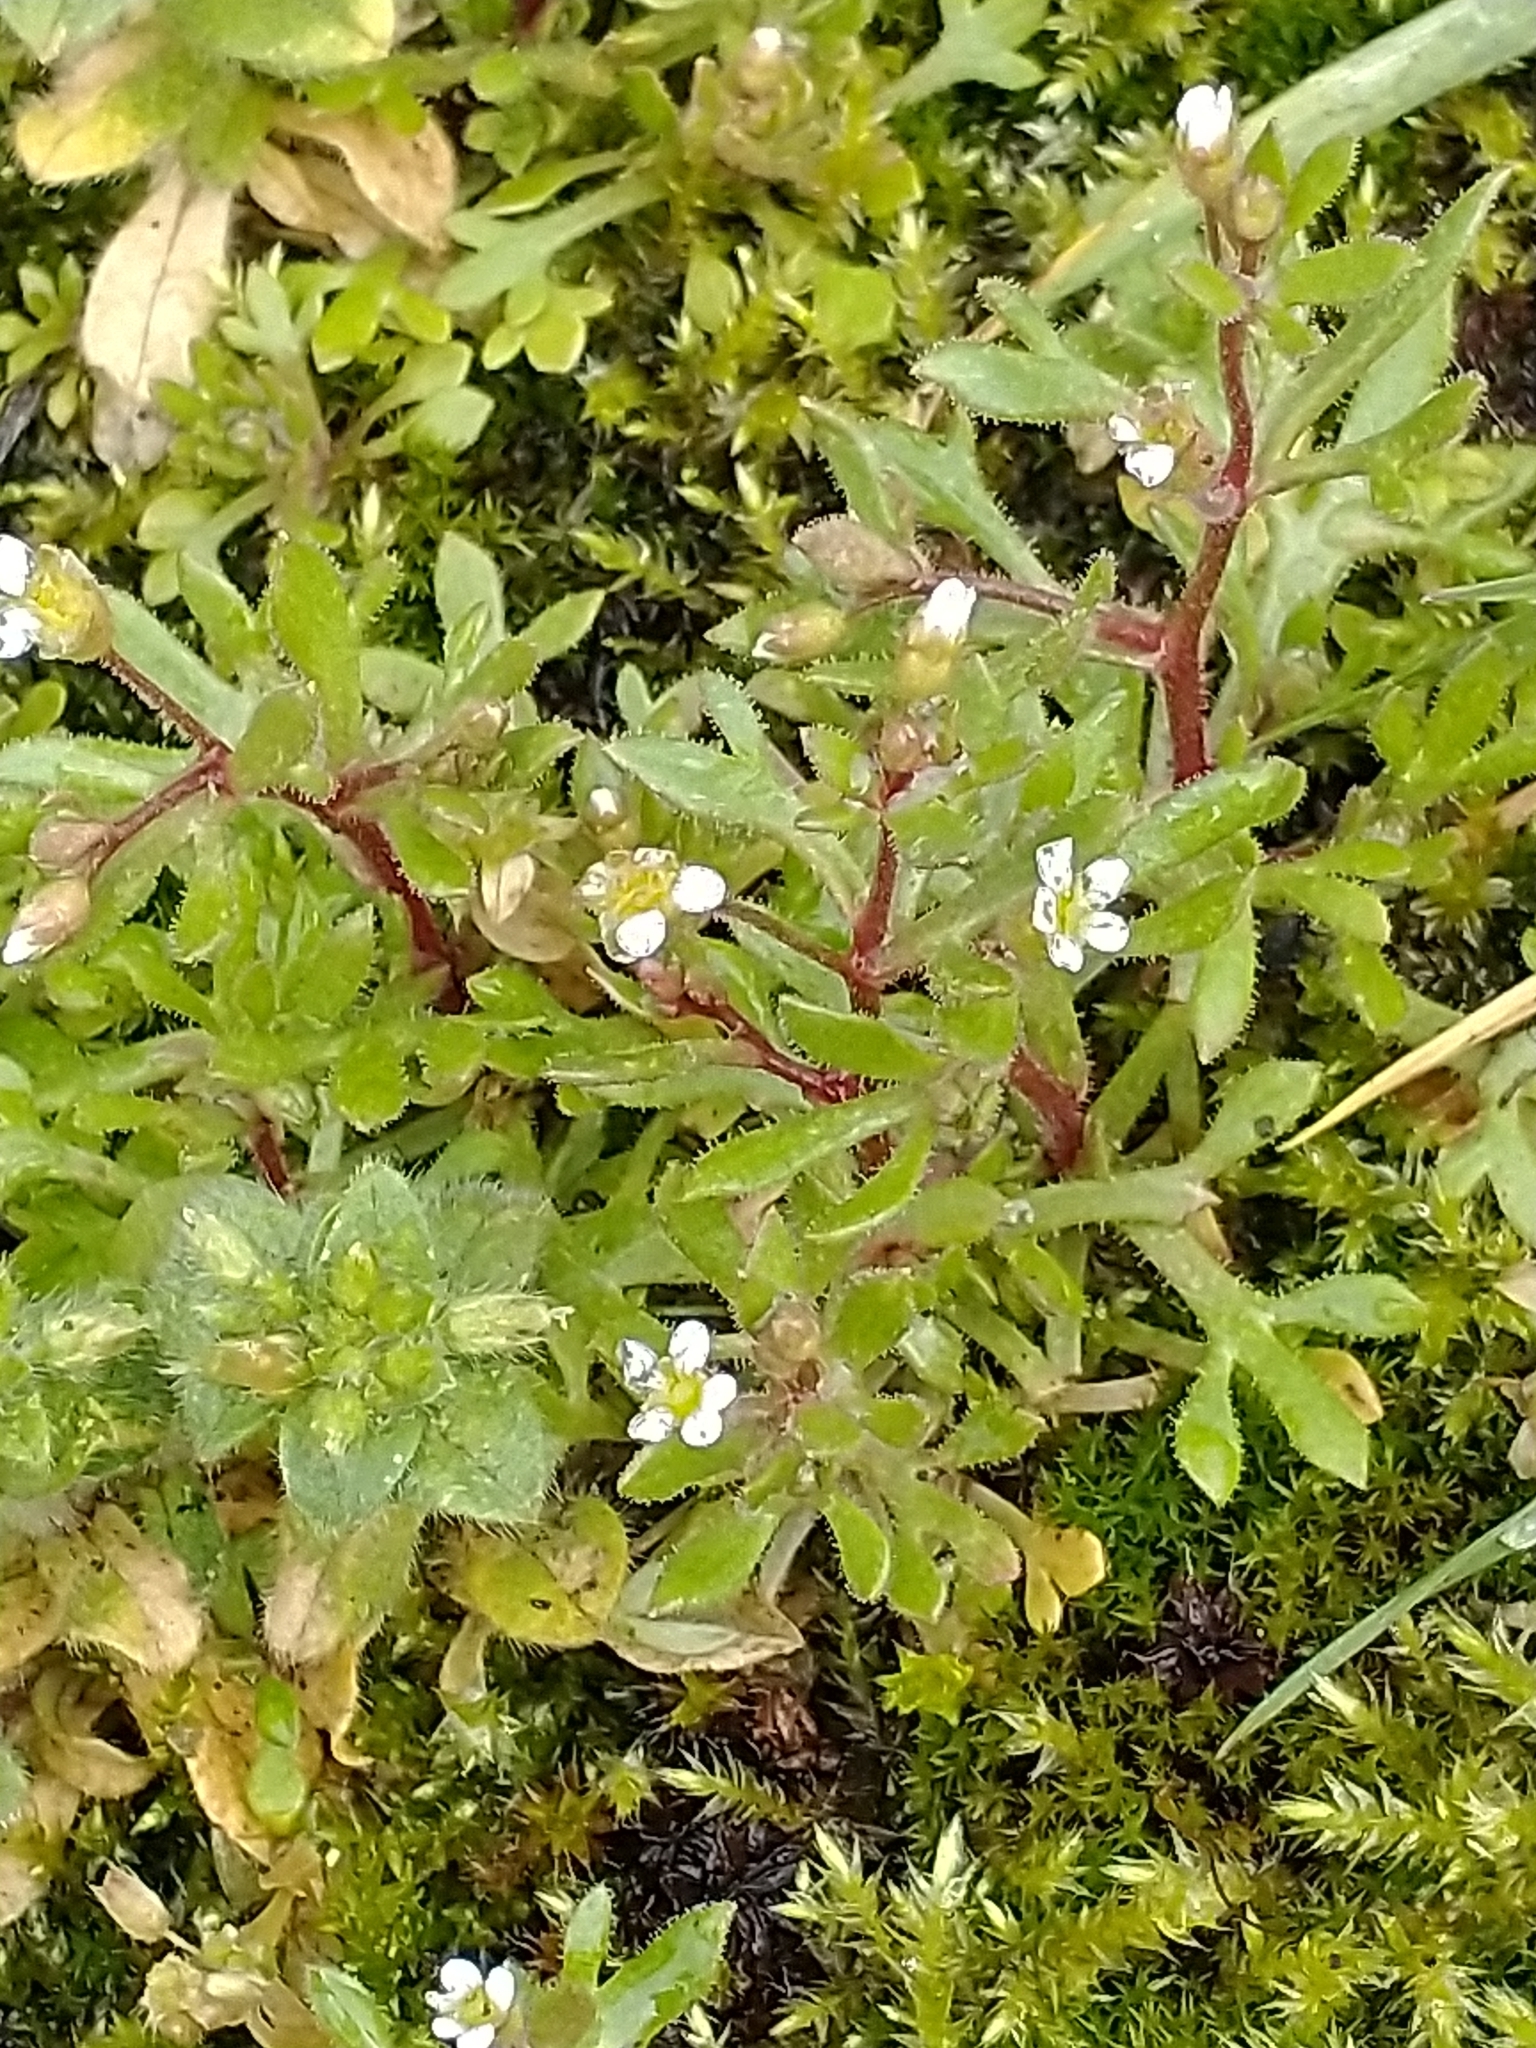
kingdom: Plantae
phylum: Tracheophyta
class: Magnoliopsida
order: Saxifragales
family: Saxifragaceae
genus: Saxifraga
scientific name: Saxifraga tridactylites
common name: Rue-leaved saxifrage
